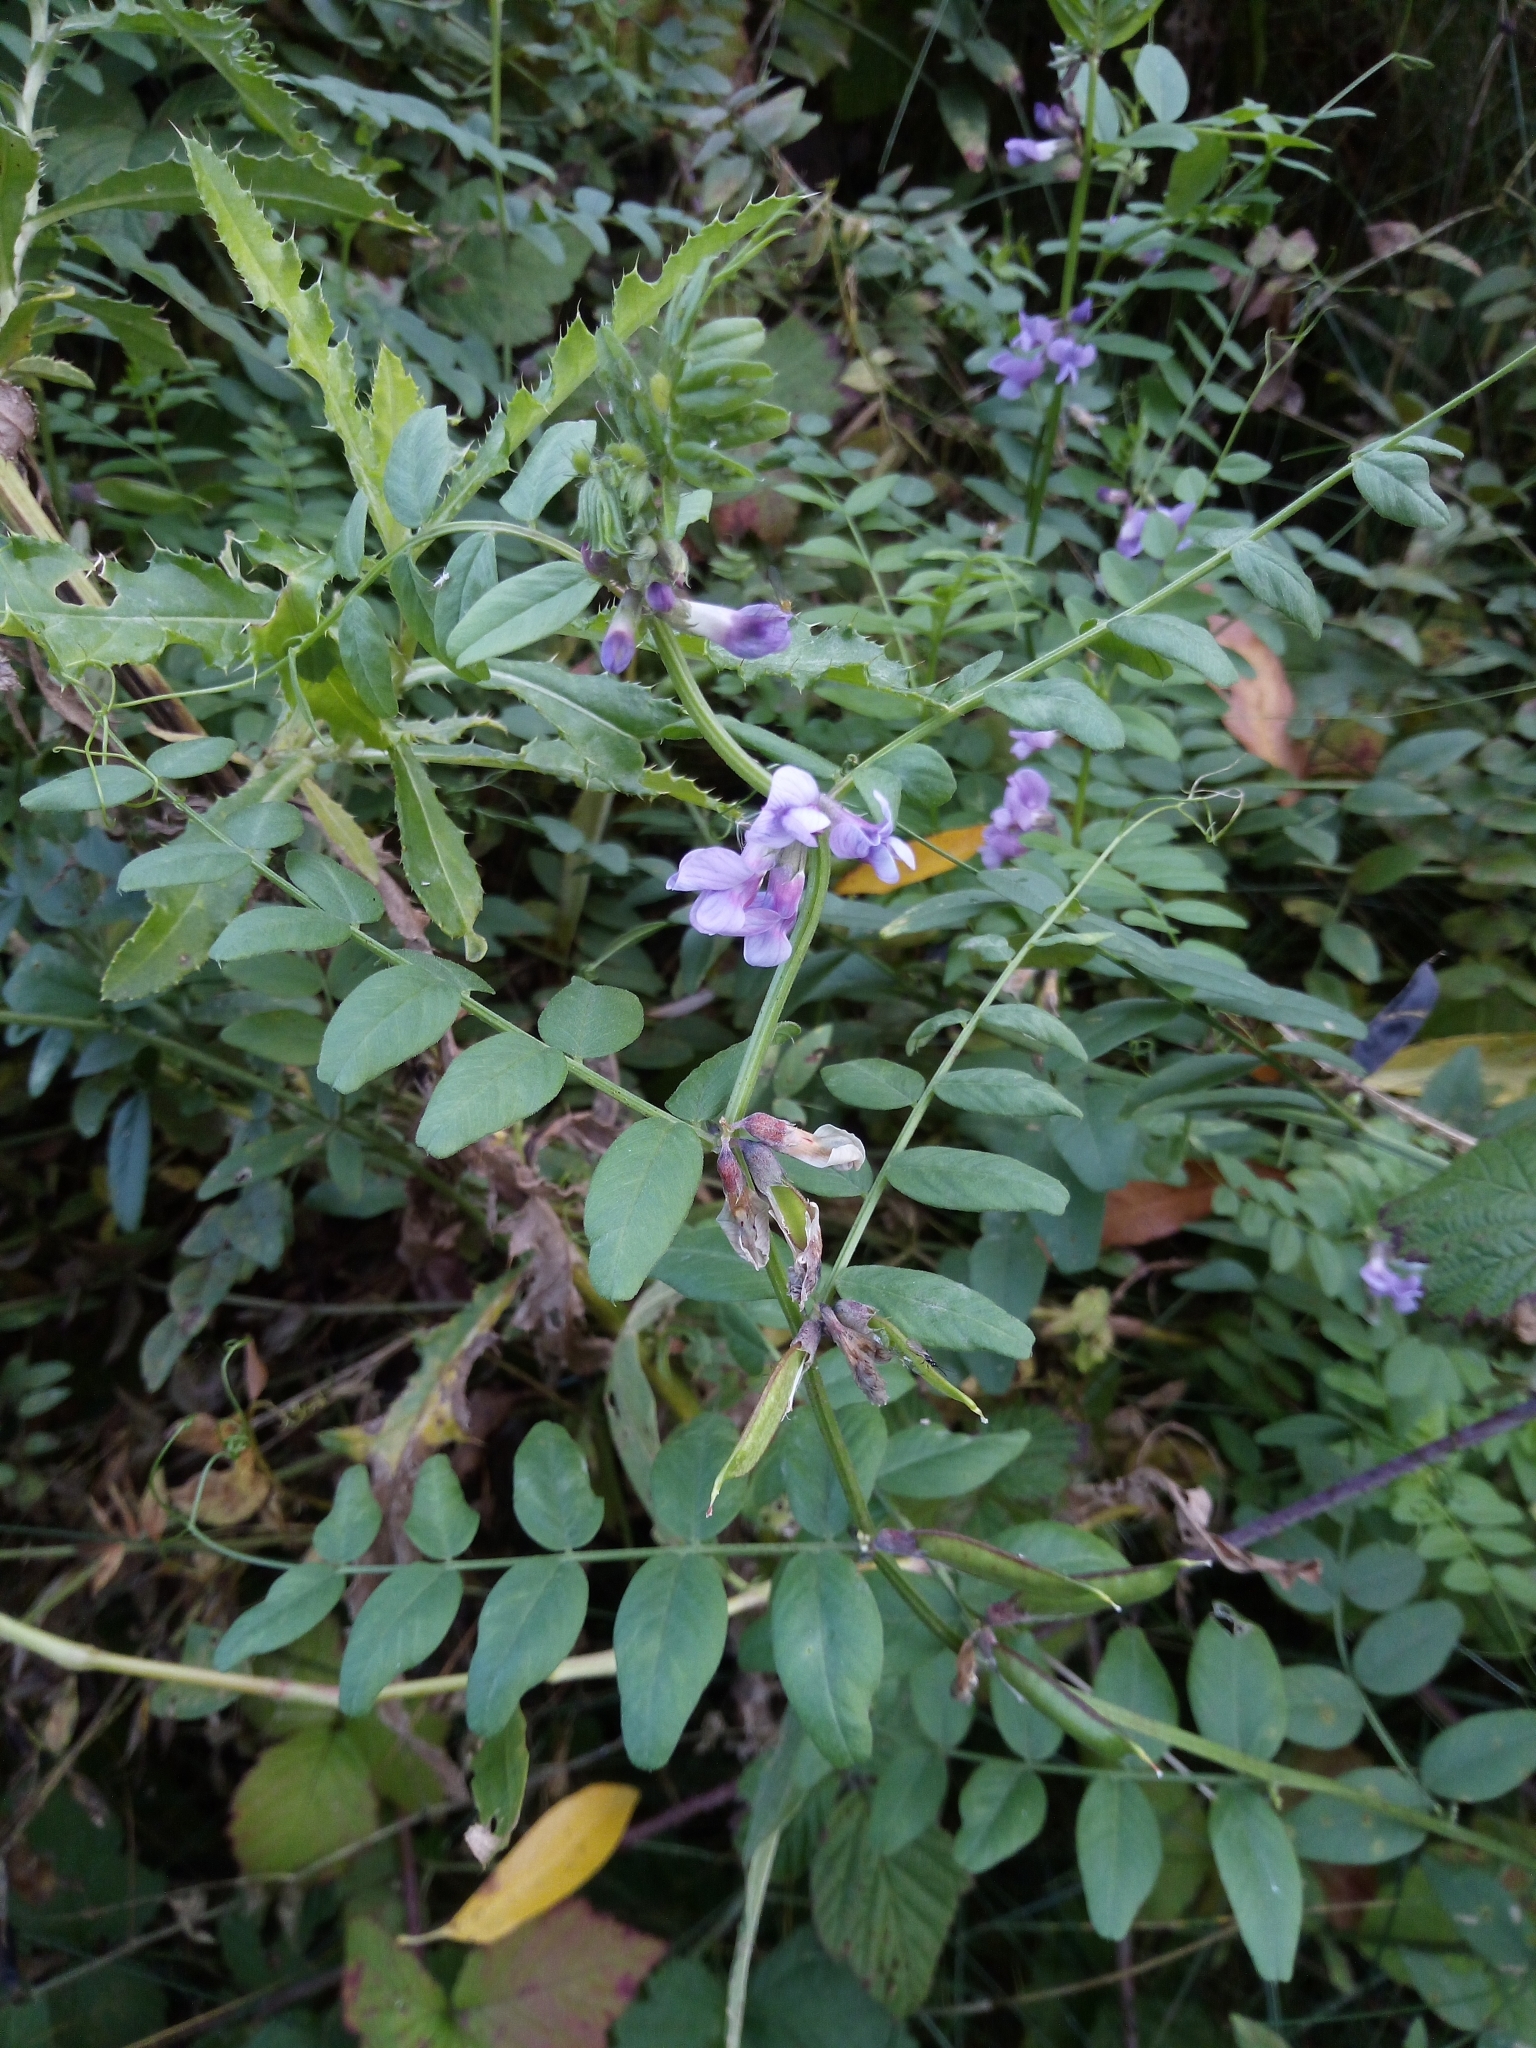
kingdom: Plantae
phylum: Tracheophyta
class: Magnoliopsida
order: Fabales
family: Fabaceae
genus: Vicia
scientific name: Vicia sepium
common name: Bush vetch
